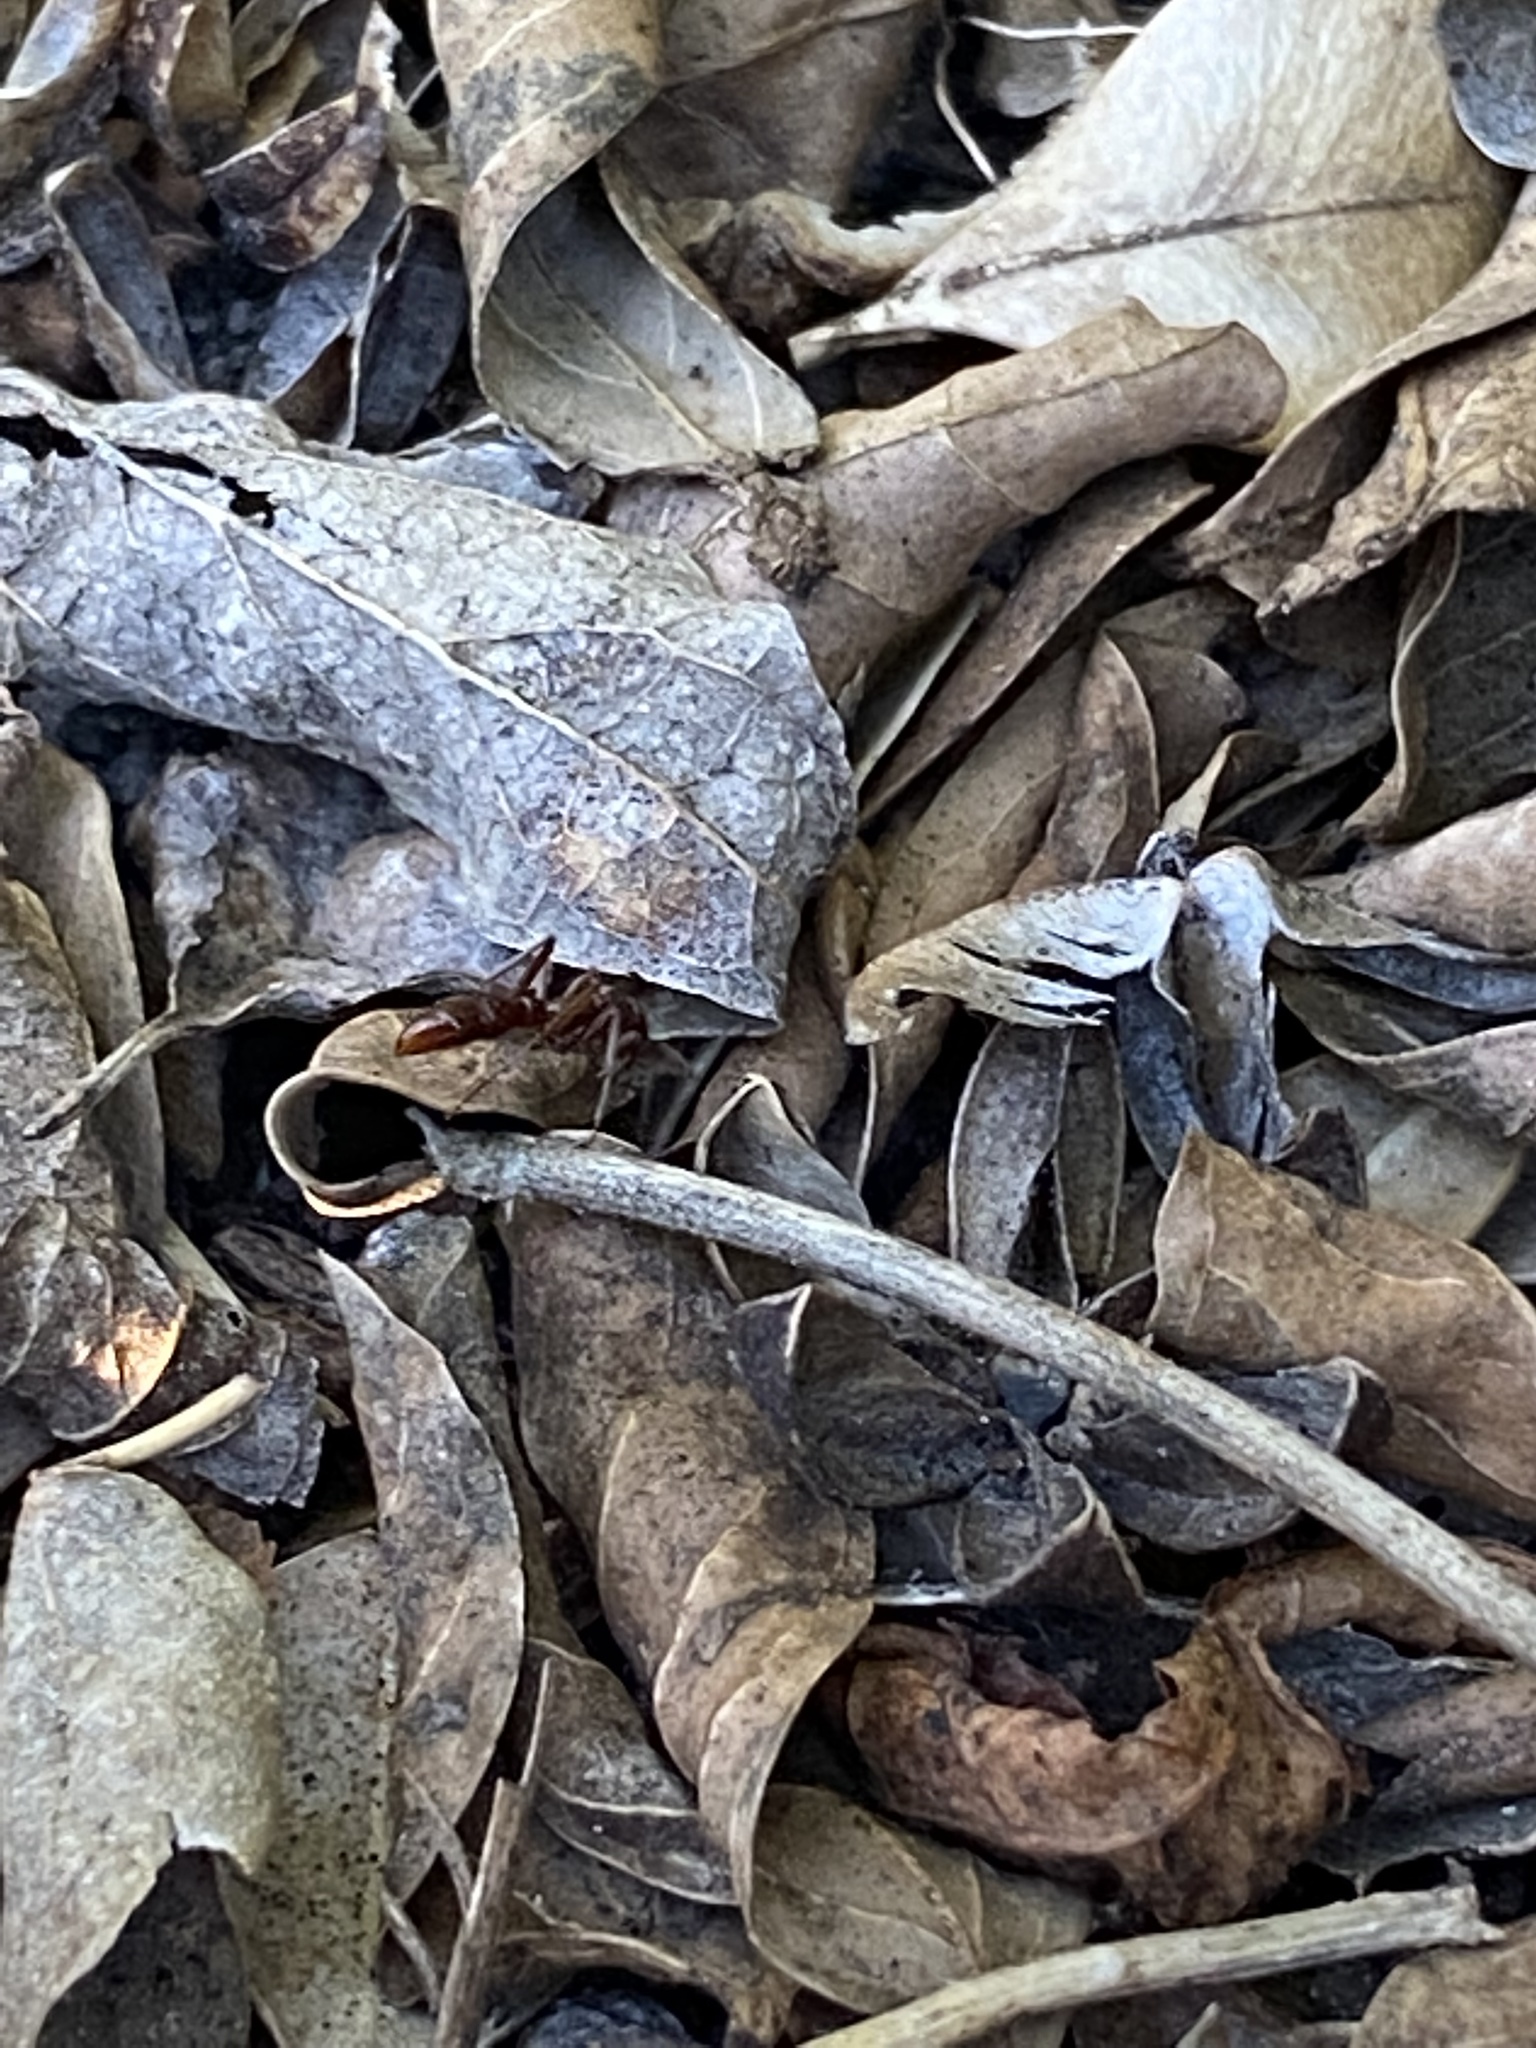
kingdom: Animalia
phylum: Arthropoda
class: Insecta
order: Hymenoptera
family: Formicidae
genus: Leptogenys
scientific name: Leptogenys elongata
